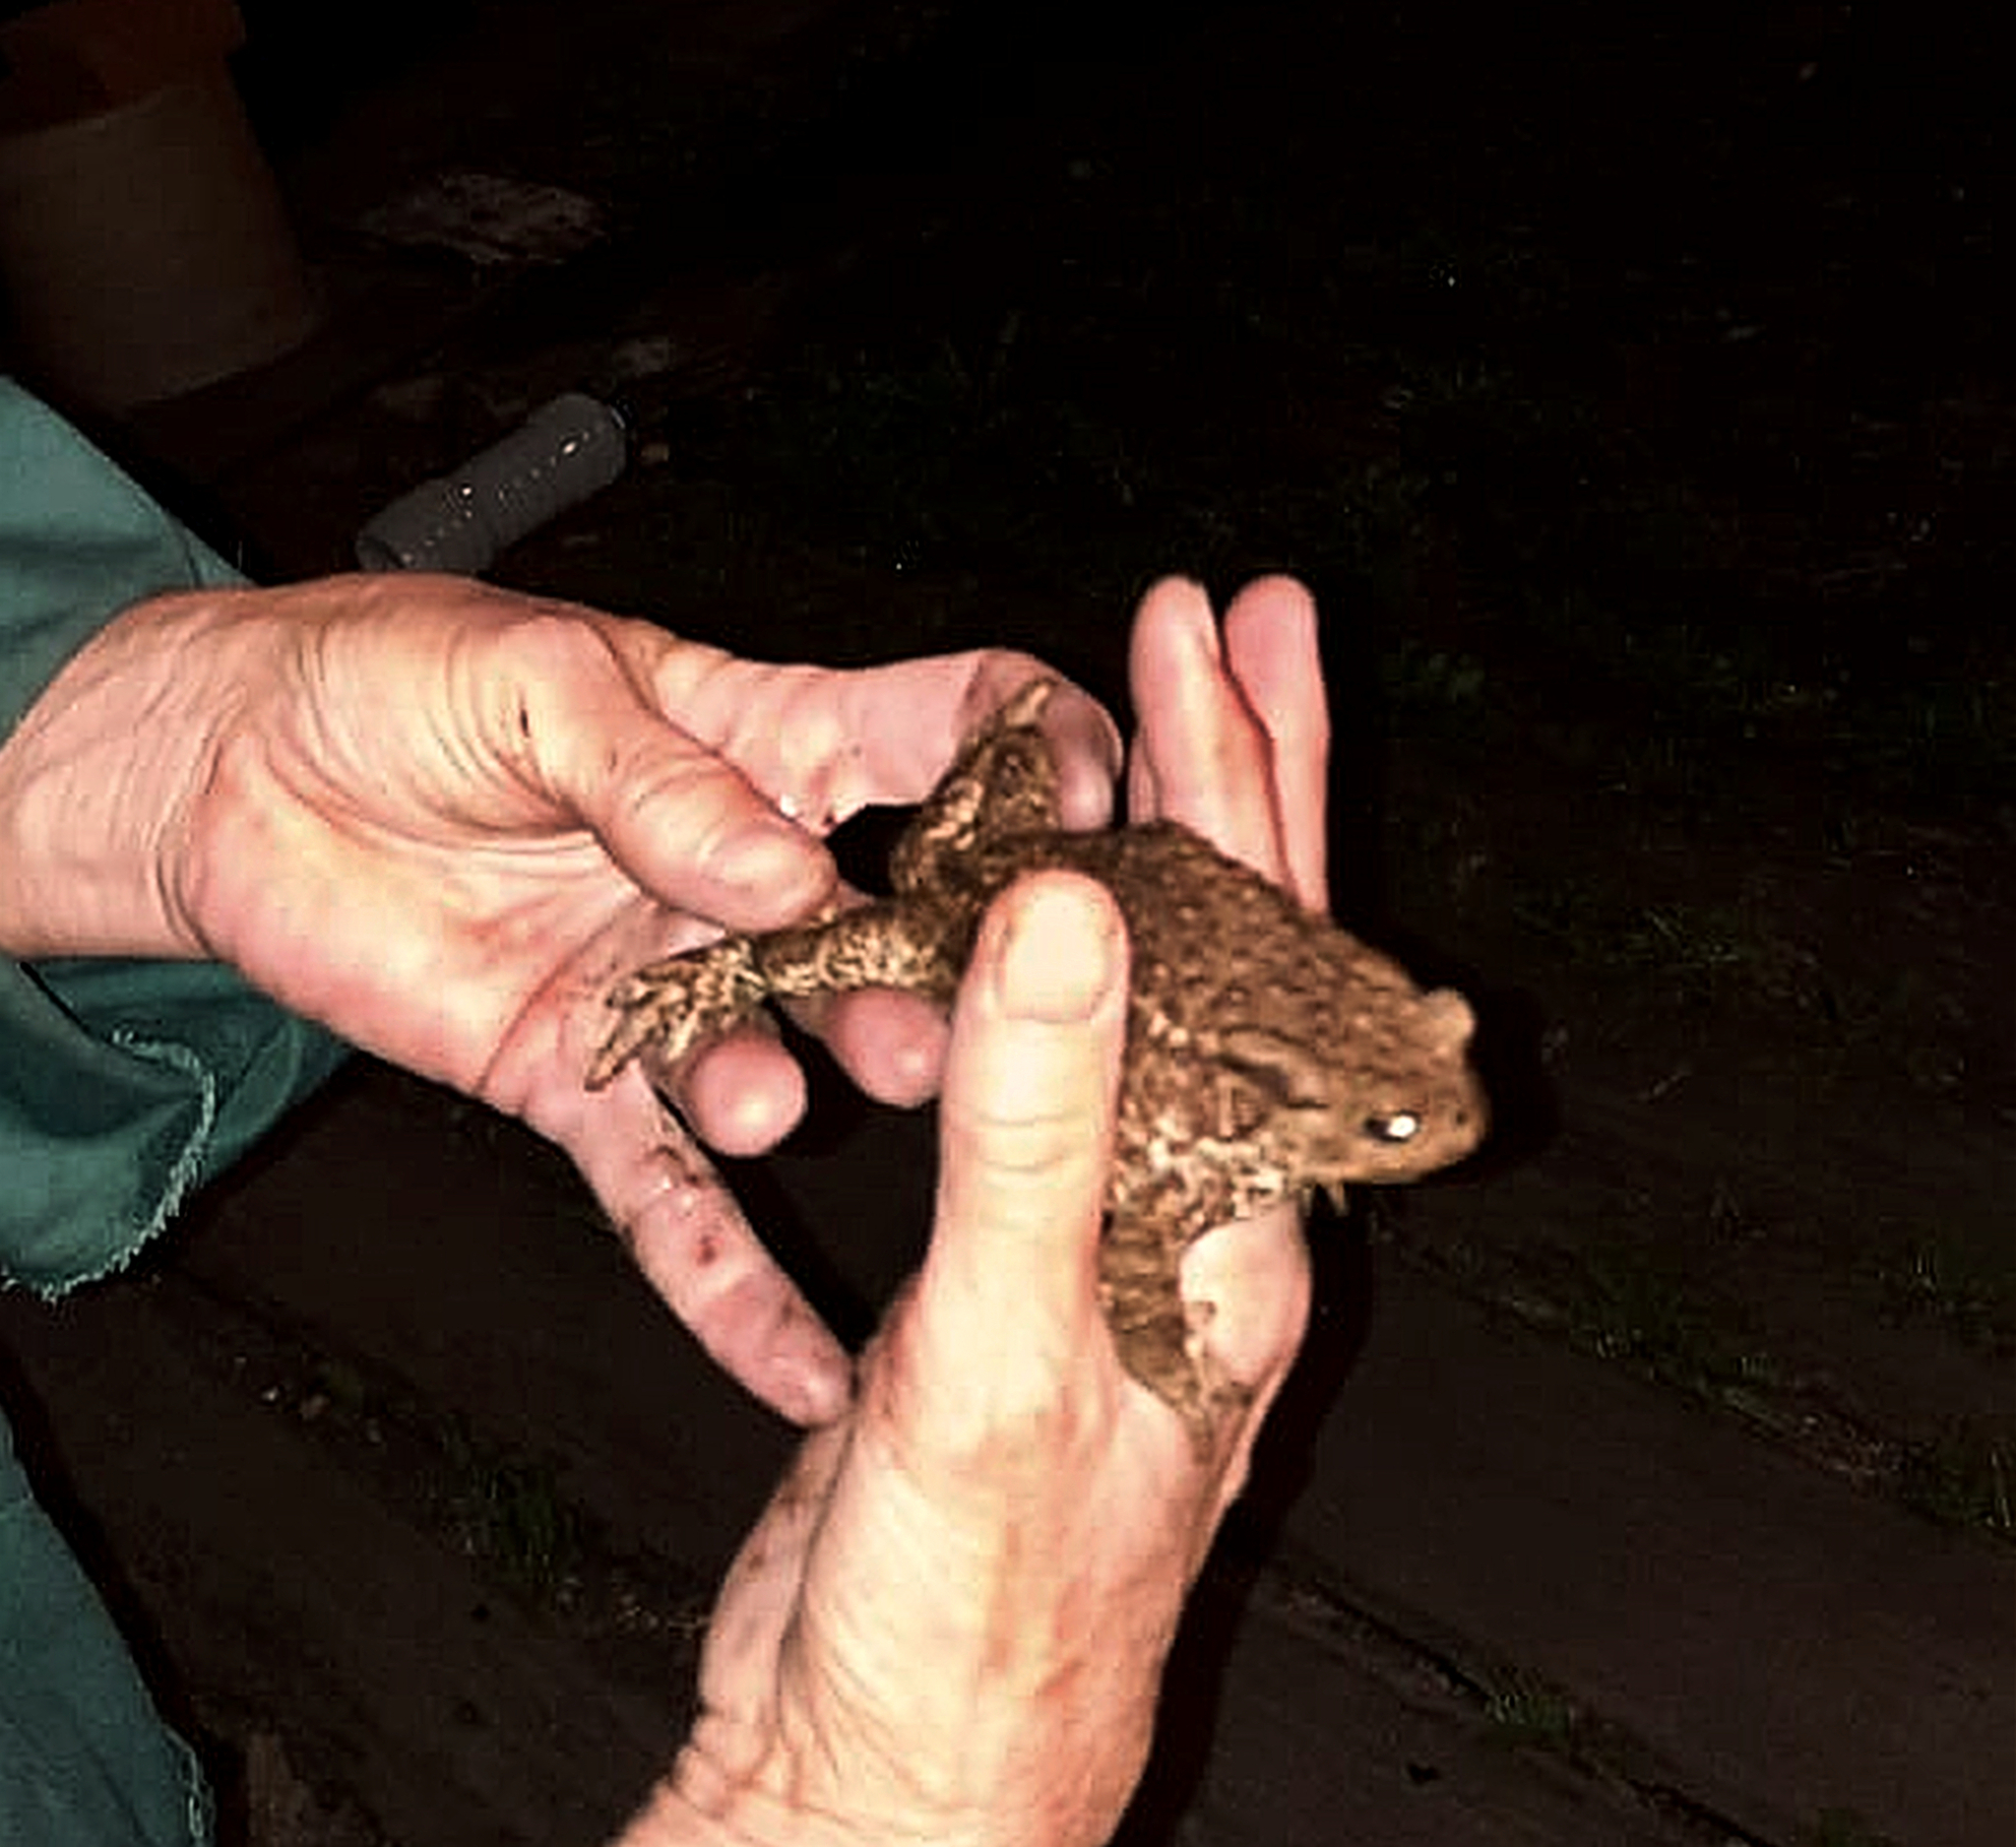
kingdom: Animalia
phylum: Chordata
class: Amphibia
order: Anura
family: Bufonidae
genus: Bufo
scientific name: Bufo bufo
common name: Common toad
